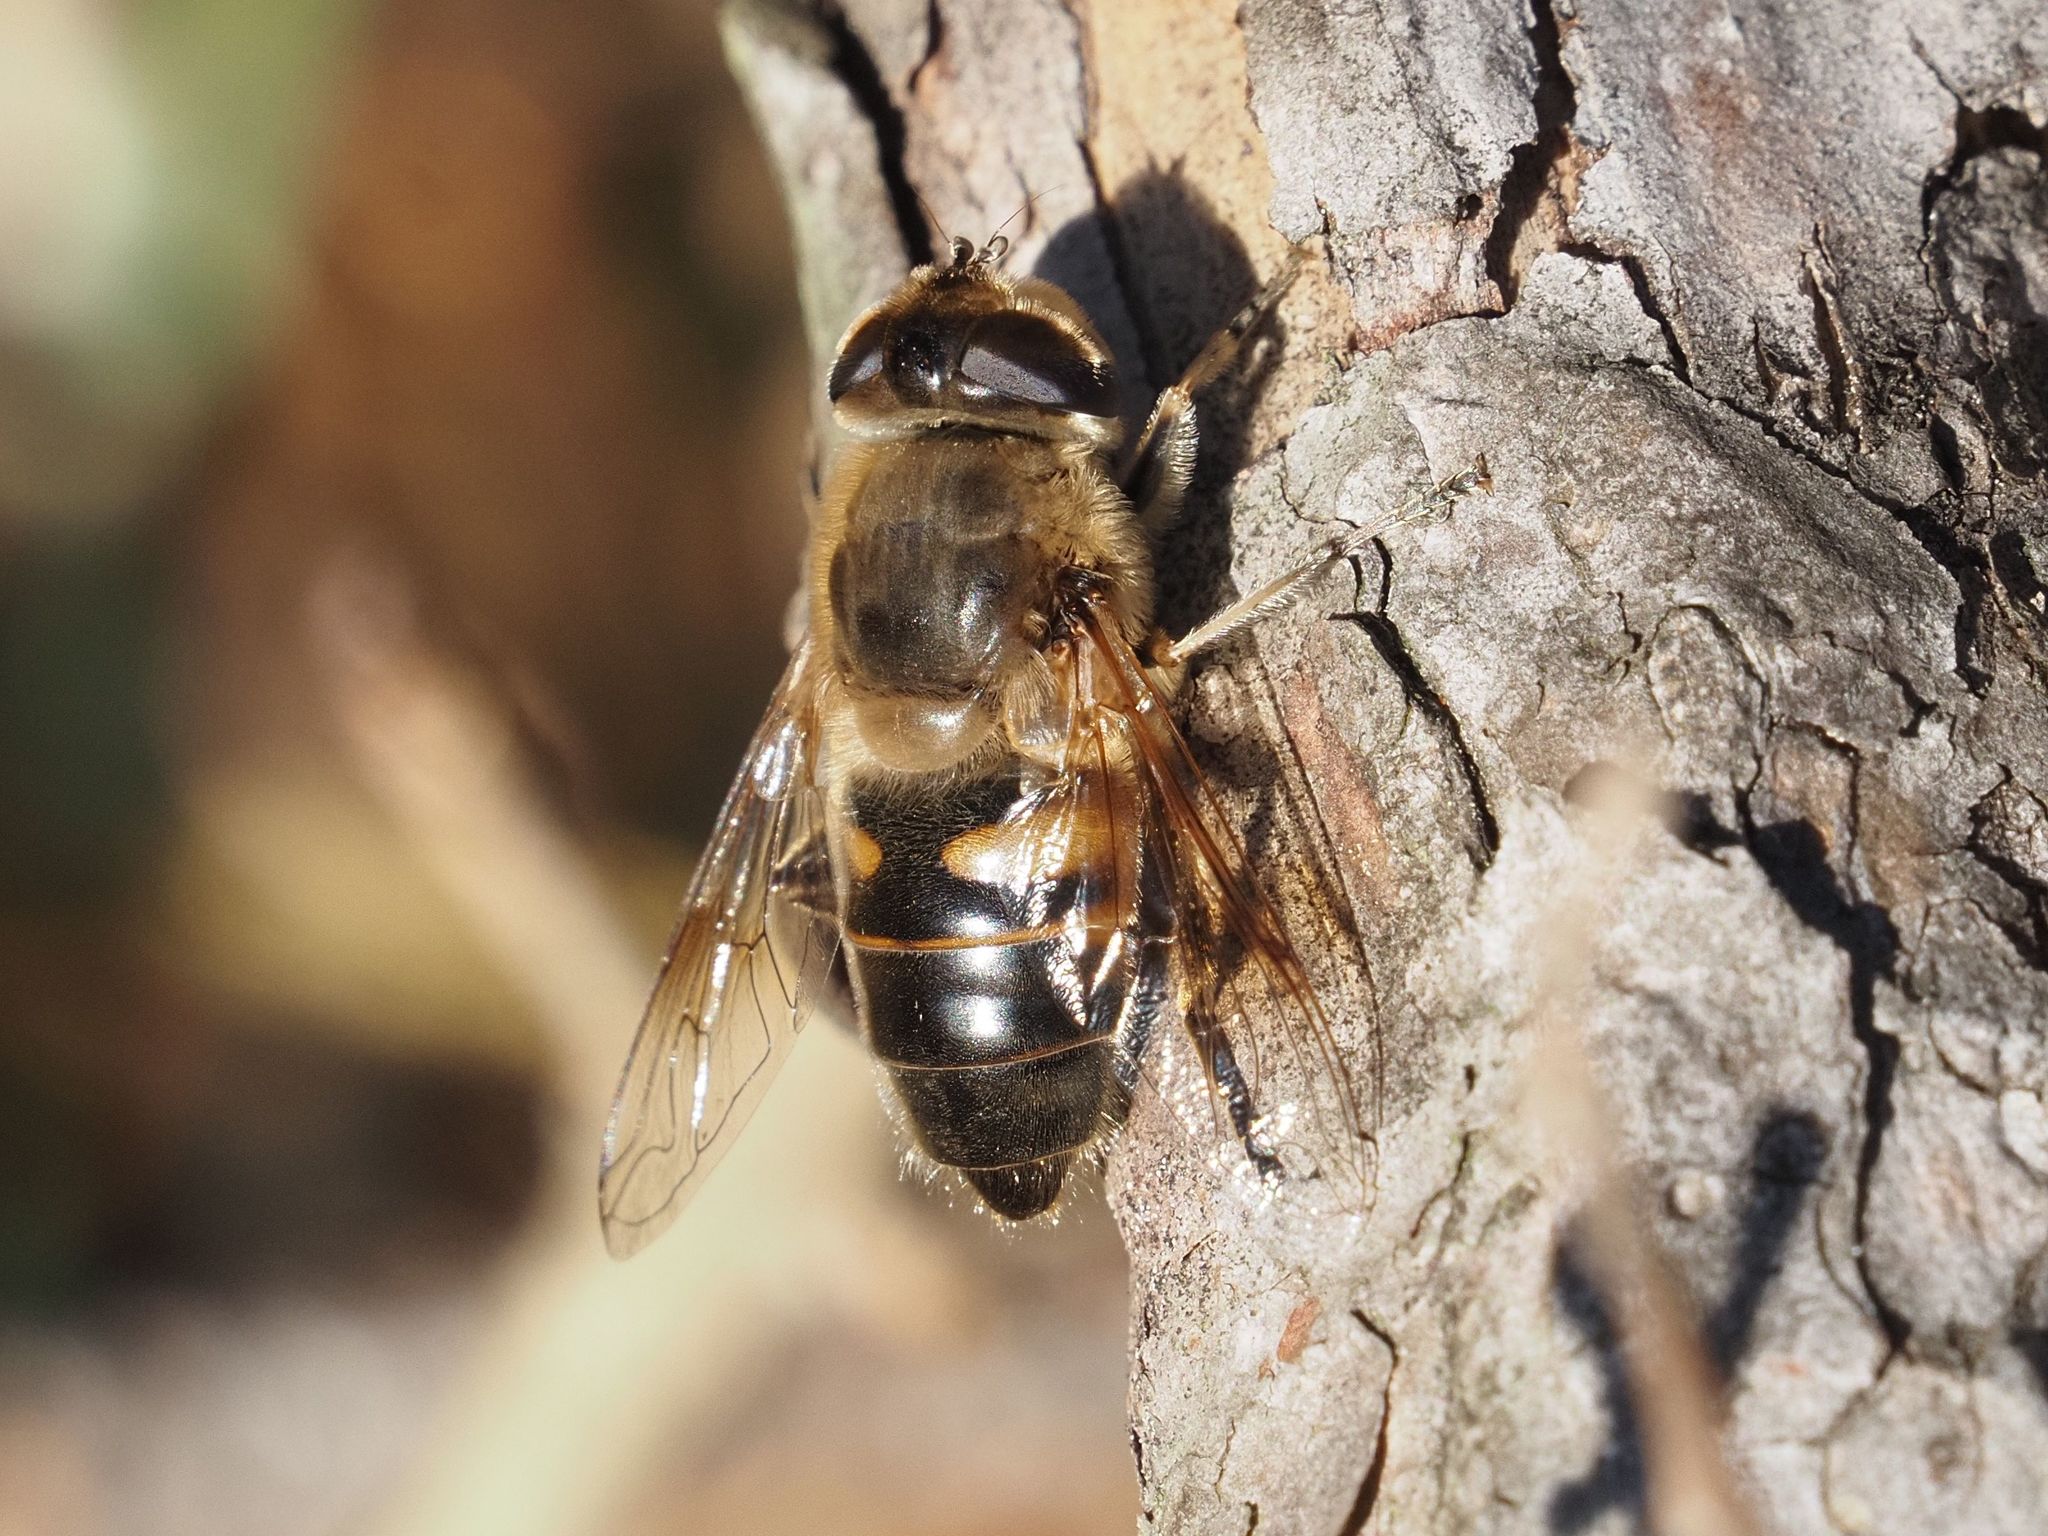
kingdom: Animalia
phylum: Arthropoda
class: Insecta
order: Diptera
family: Syrphidae
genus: Eristalis
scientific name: Eristalis tenax
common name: Drone fly
